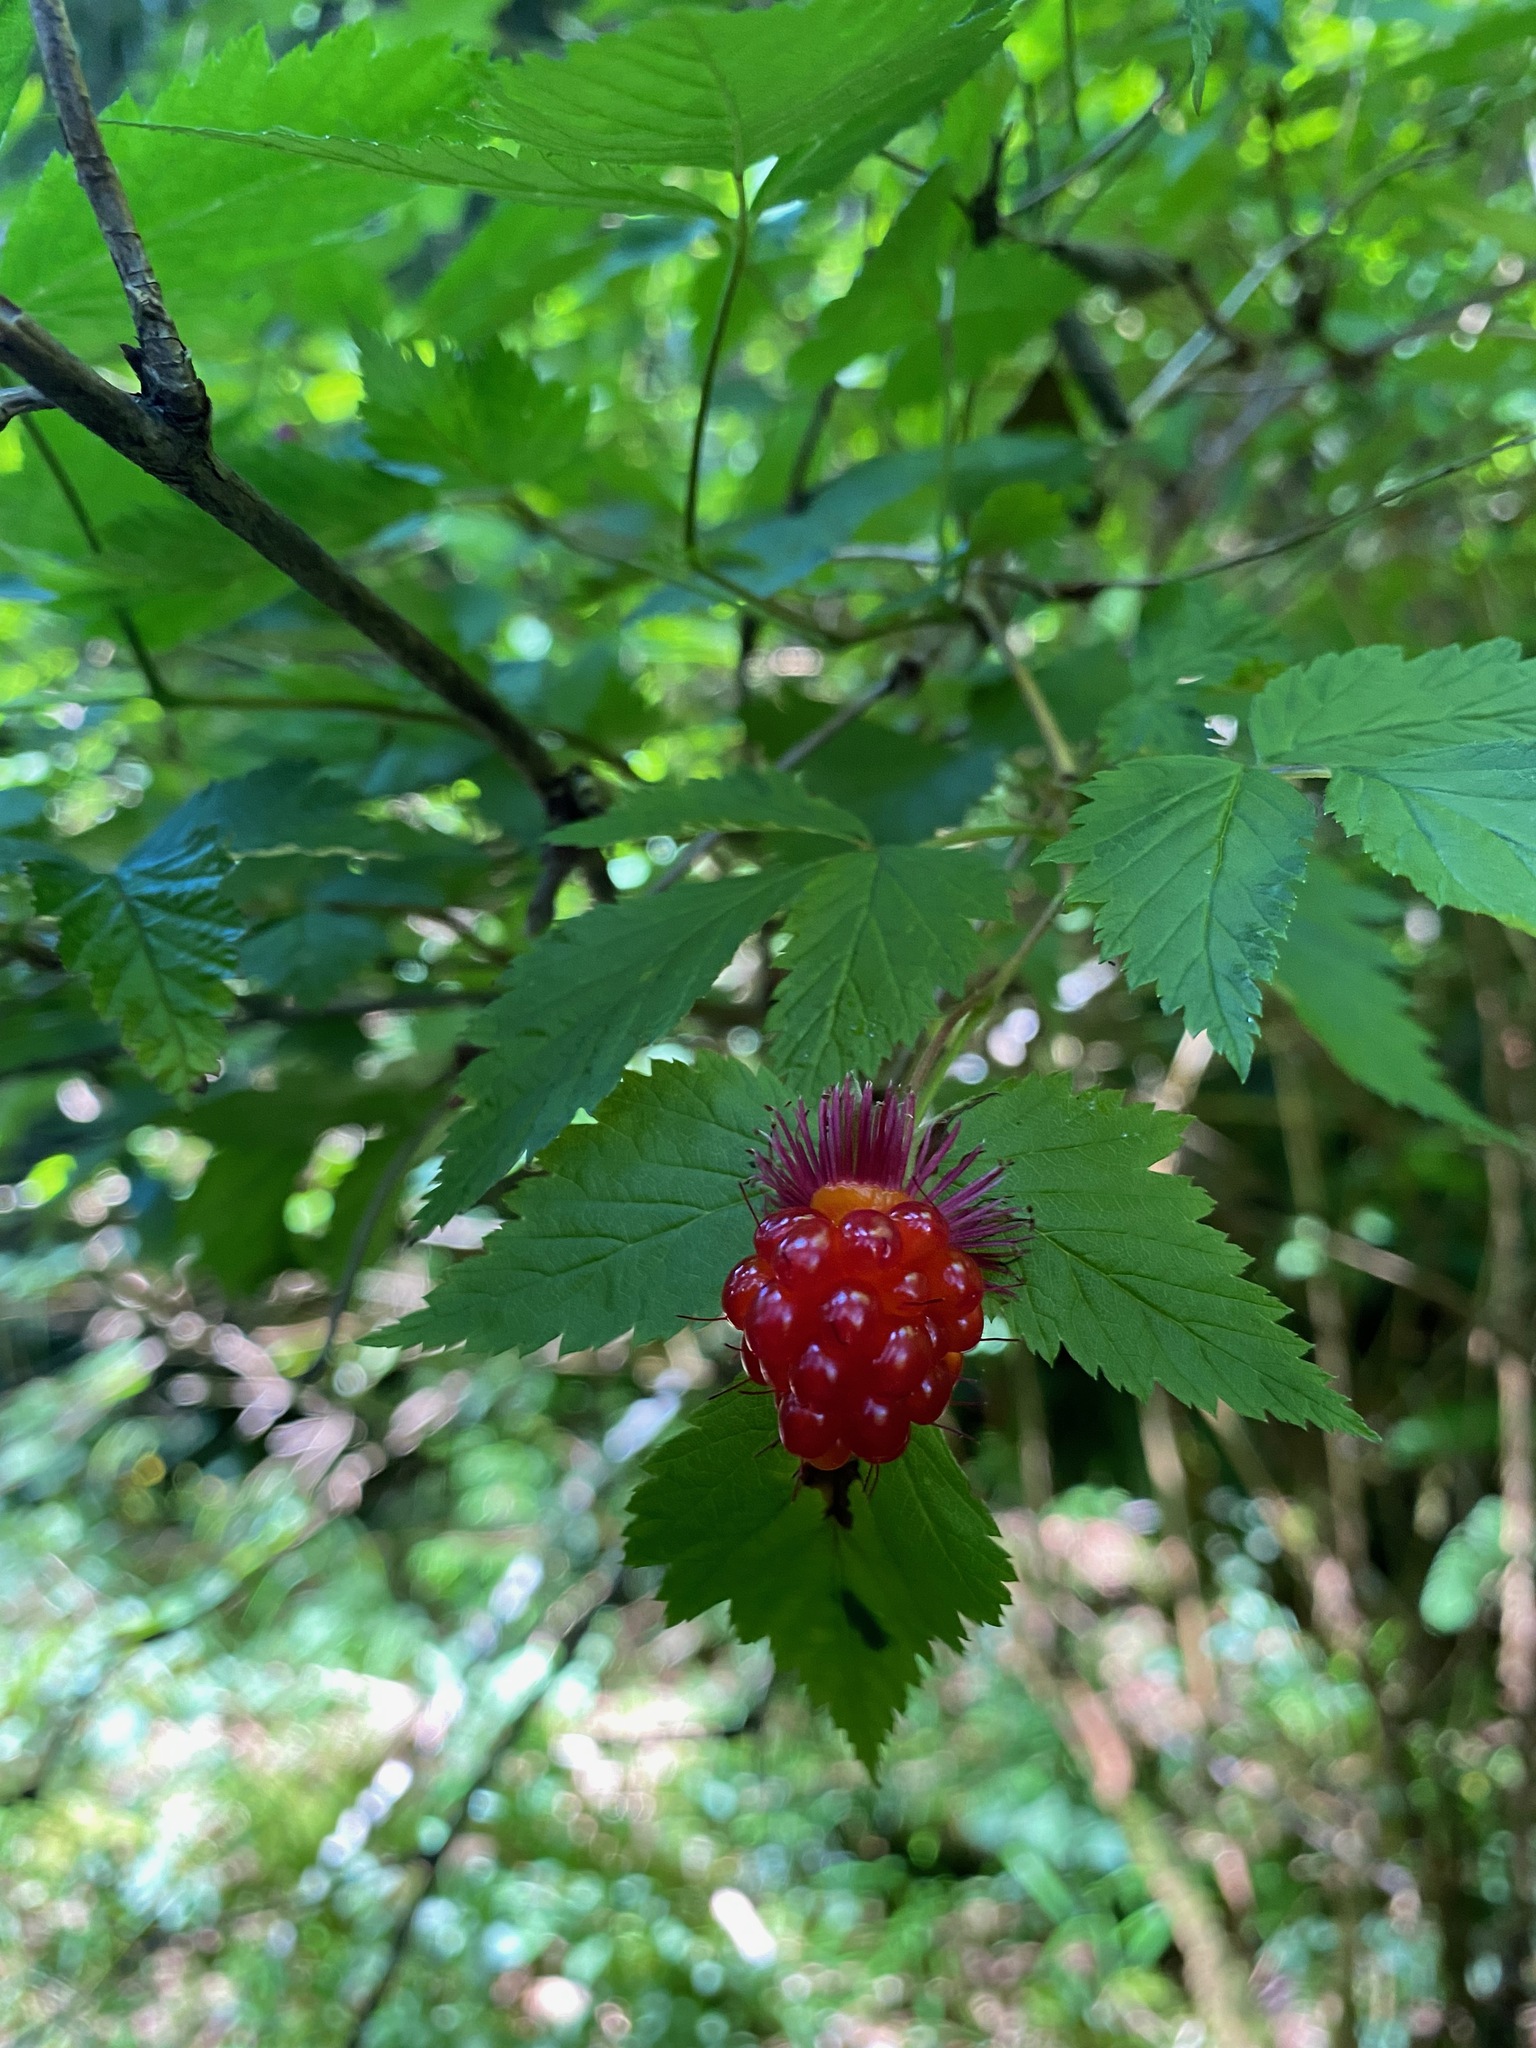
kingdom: Plantae
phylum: Tracheophyta
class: Magnoliopsida
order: Rosales
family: Rosaceae
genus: Rubus
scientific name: Rubus spectabilis
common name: Salmonberry
